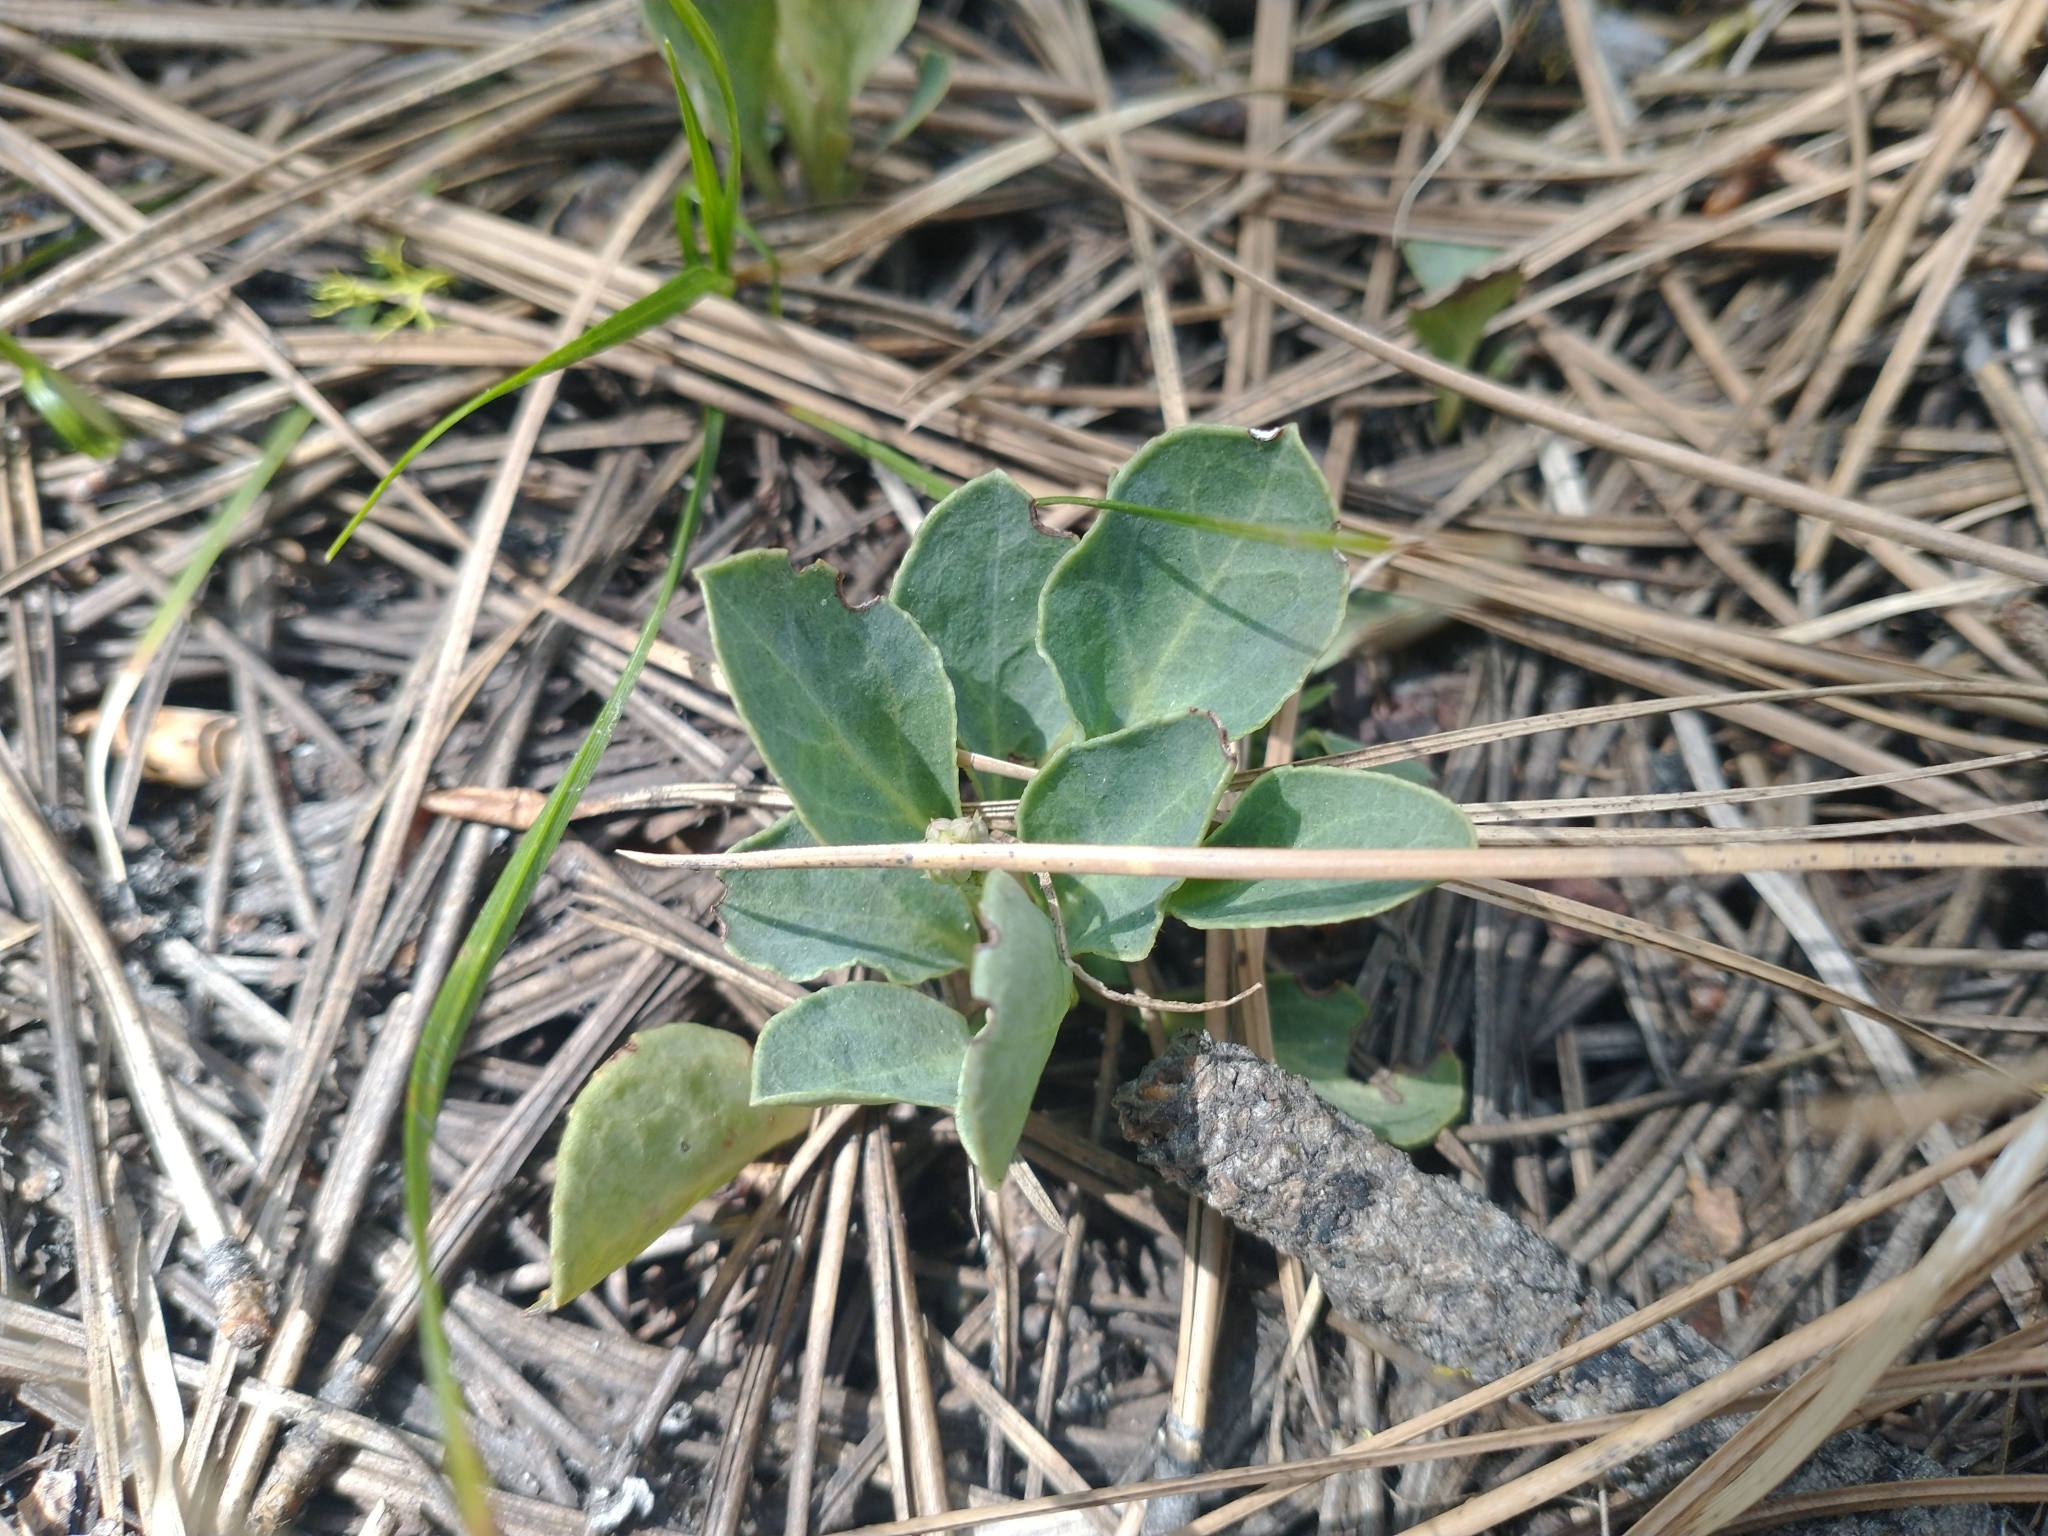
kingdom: Plantae
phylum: Tracheophyta
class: Magnoliopsida
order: Ericales
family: Ericaceae
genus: Pyrola
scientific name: Pyrola dentata
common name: Tooth-leaved wintergreen
